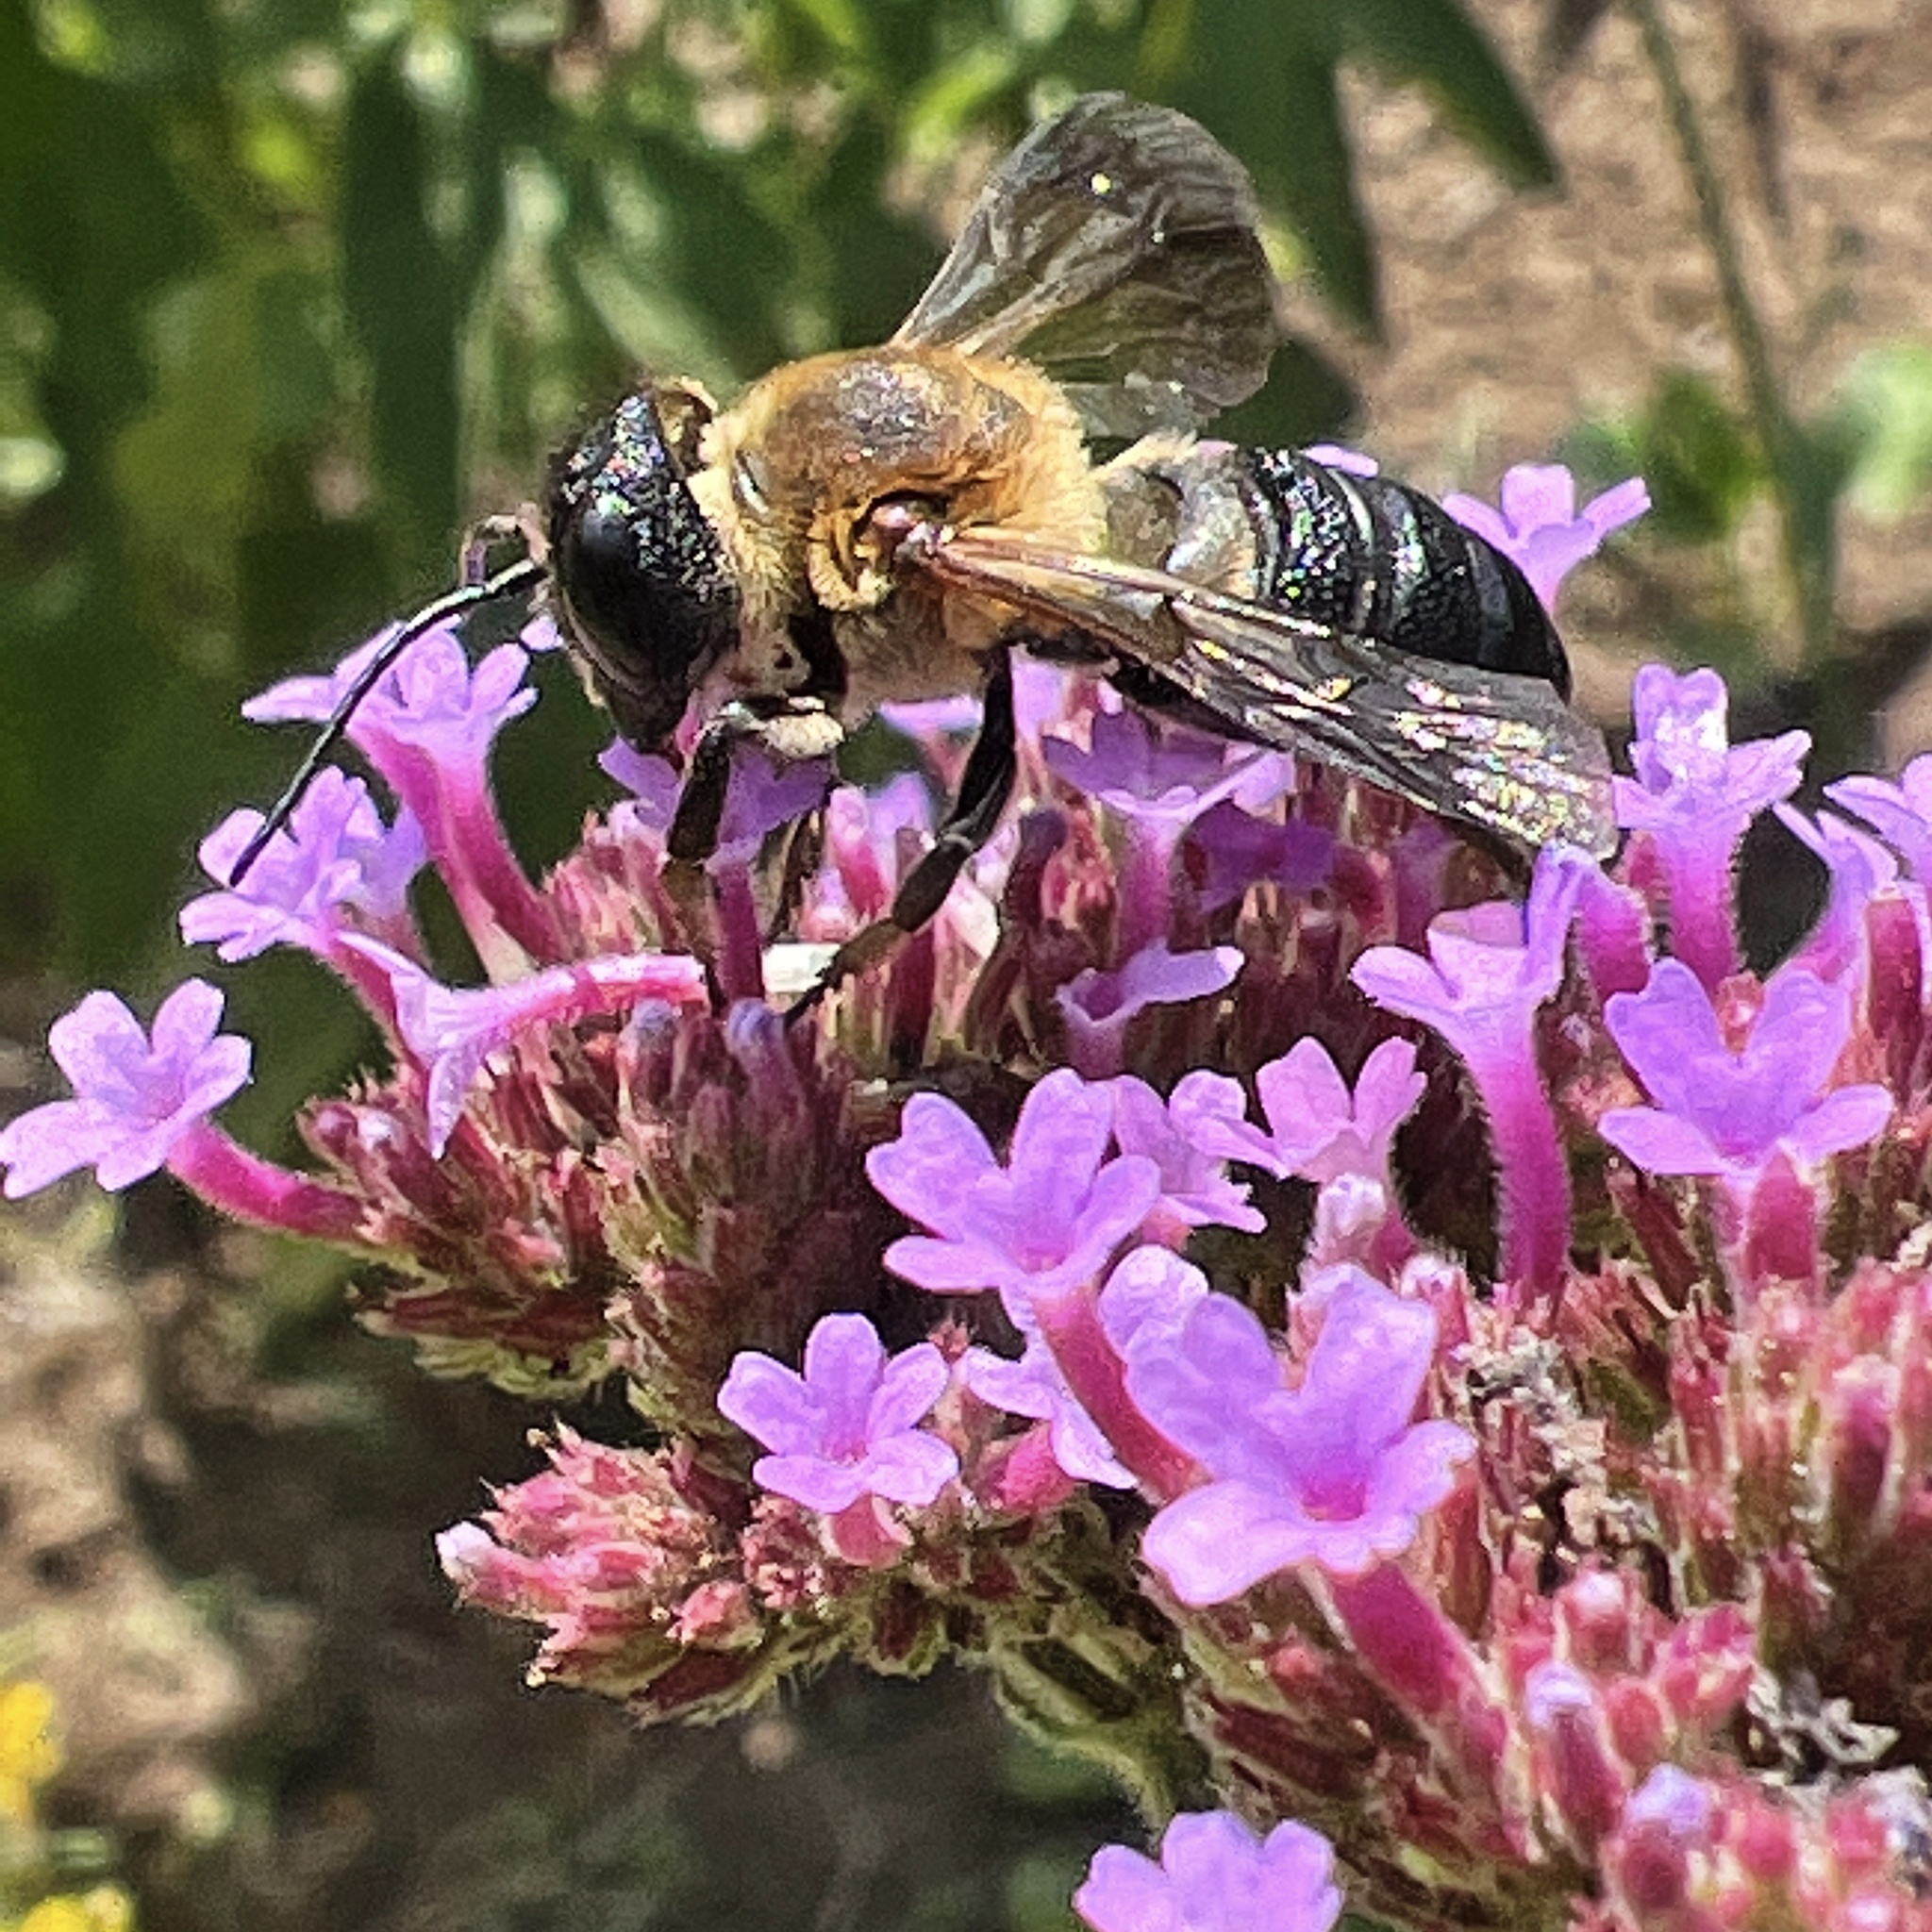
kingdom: Animalia
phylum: Arthropoda
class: Insecta
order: Hymenoptera
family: Megachilidae
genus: Megachile
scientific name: Megachile sculpturalis
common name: Sculptured resin bee
